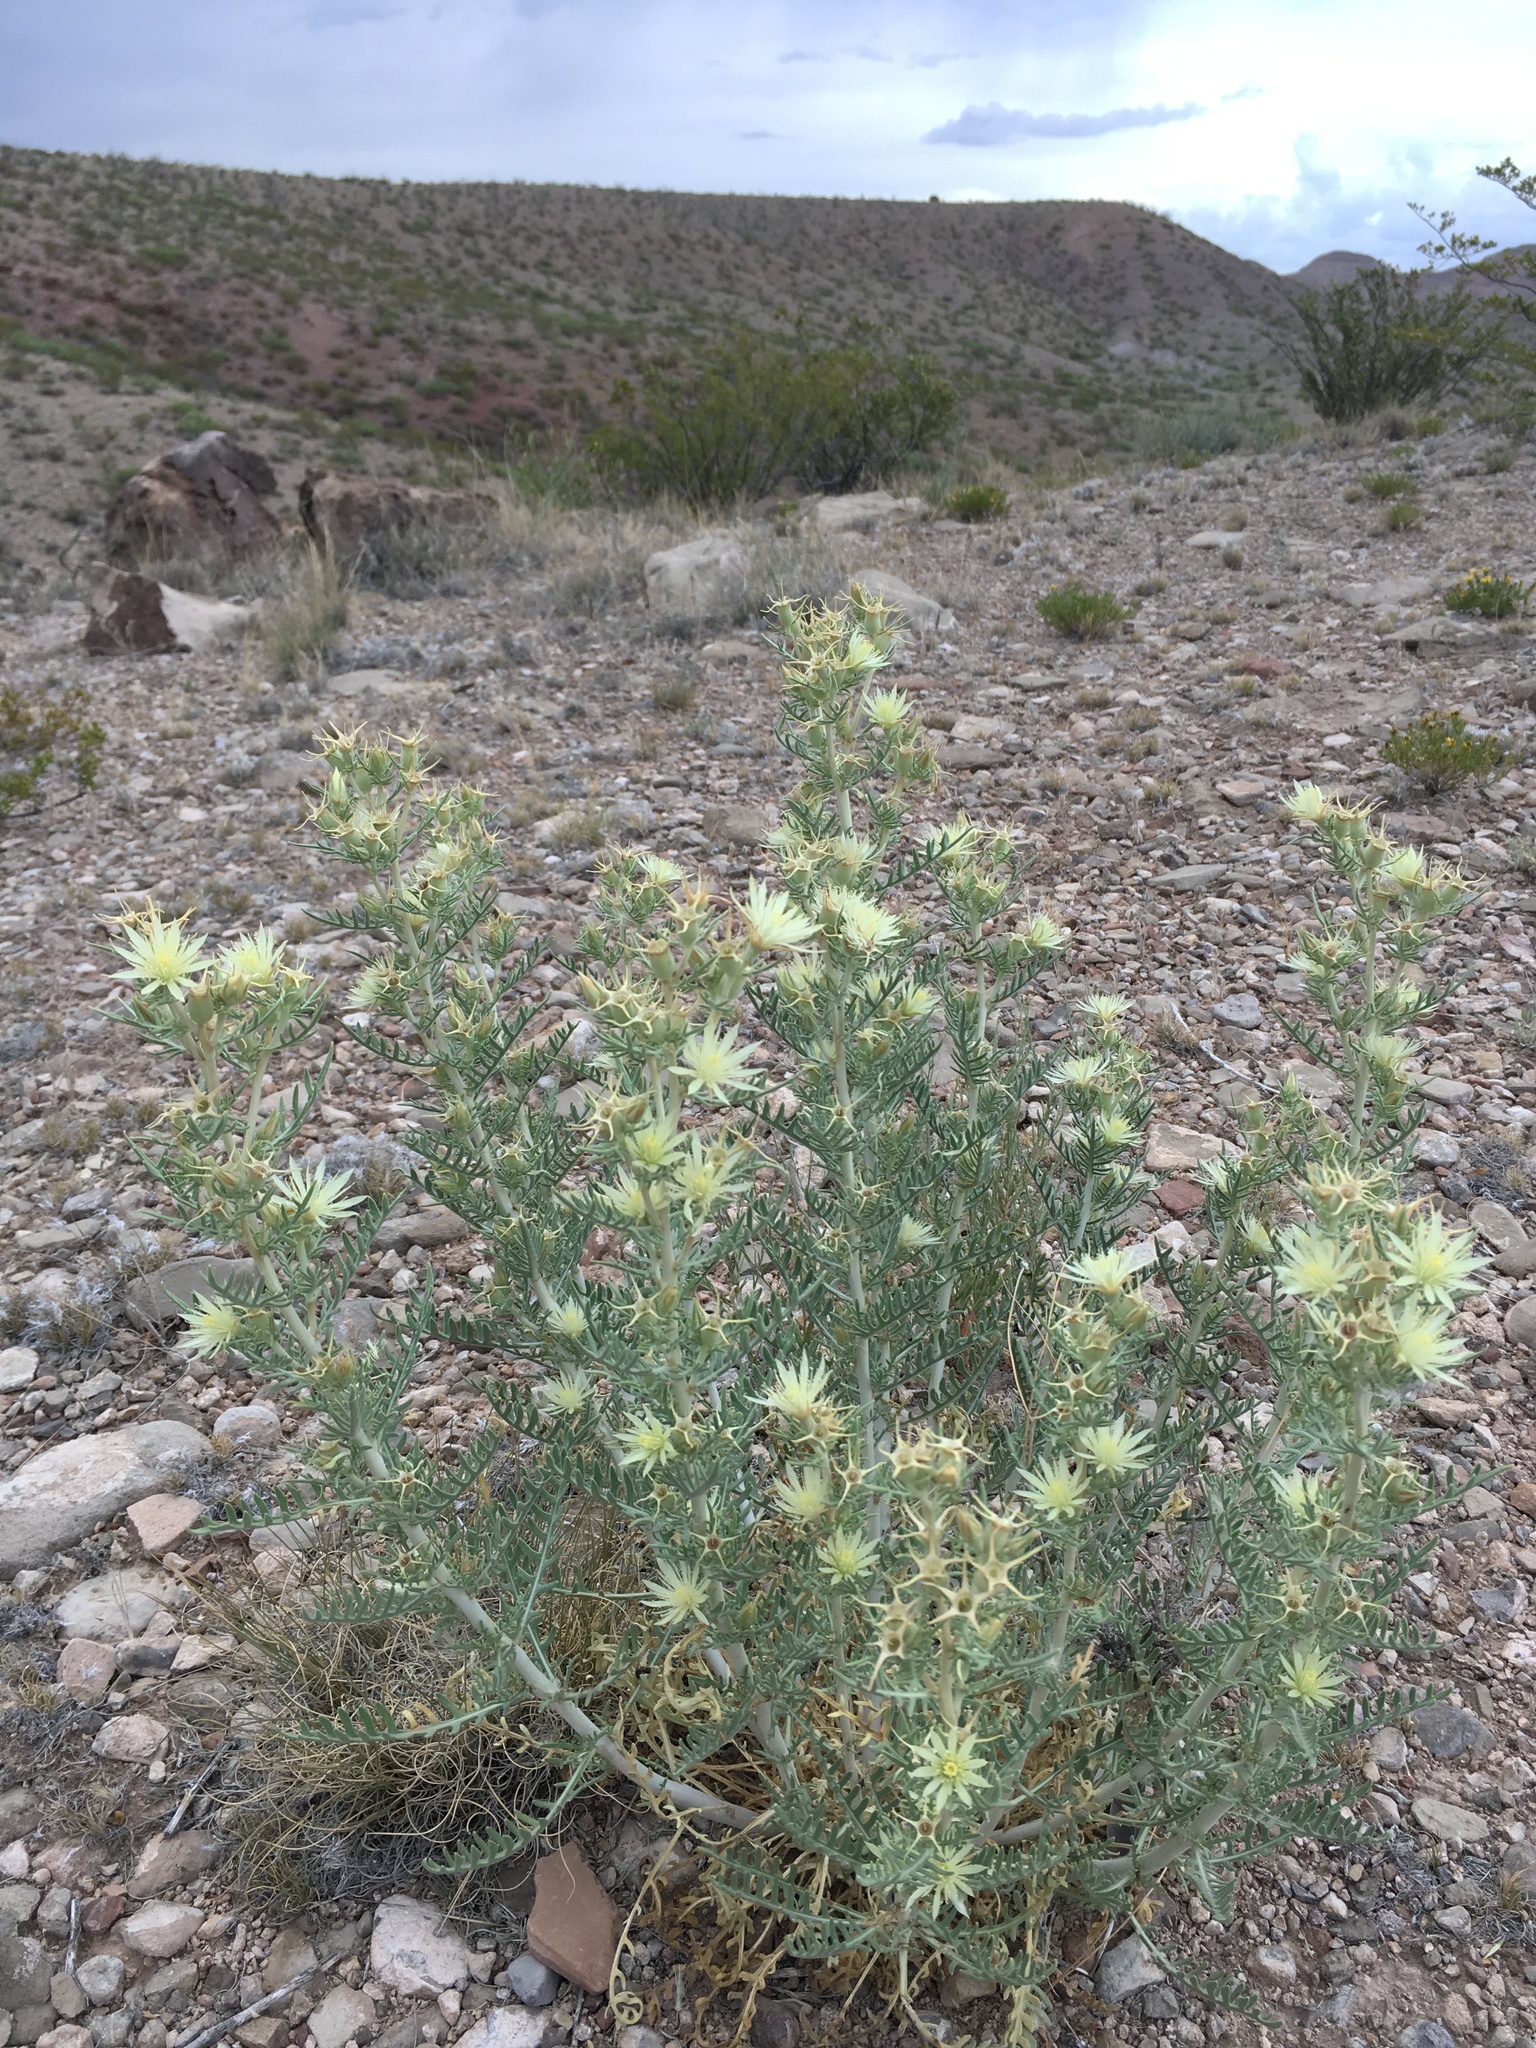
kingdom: Plantae
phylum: Tracheophyta
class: Magnoliopsida
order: Cornales
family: Loasaceae
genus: Mentzelia
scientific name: Mentzelia humilis
